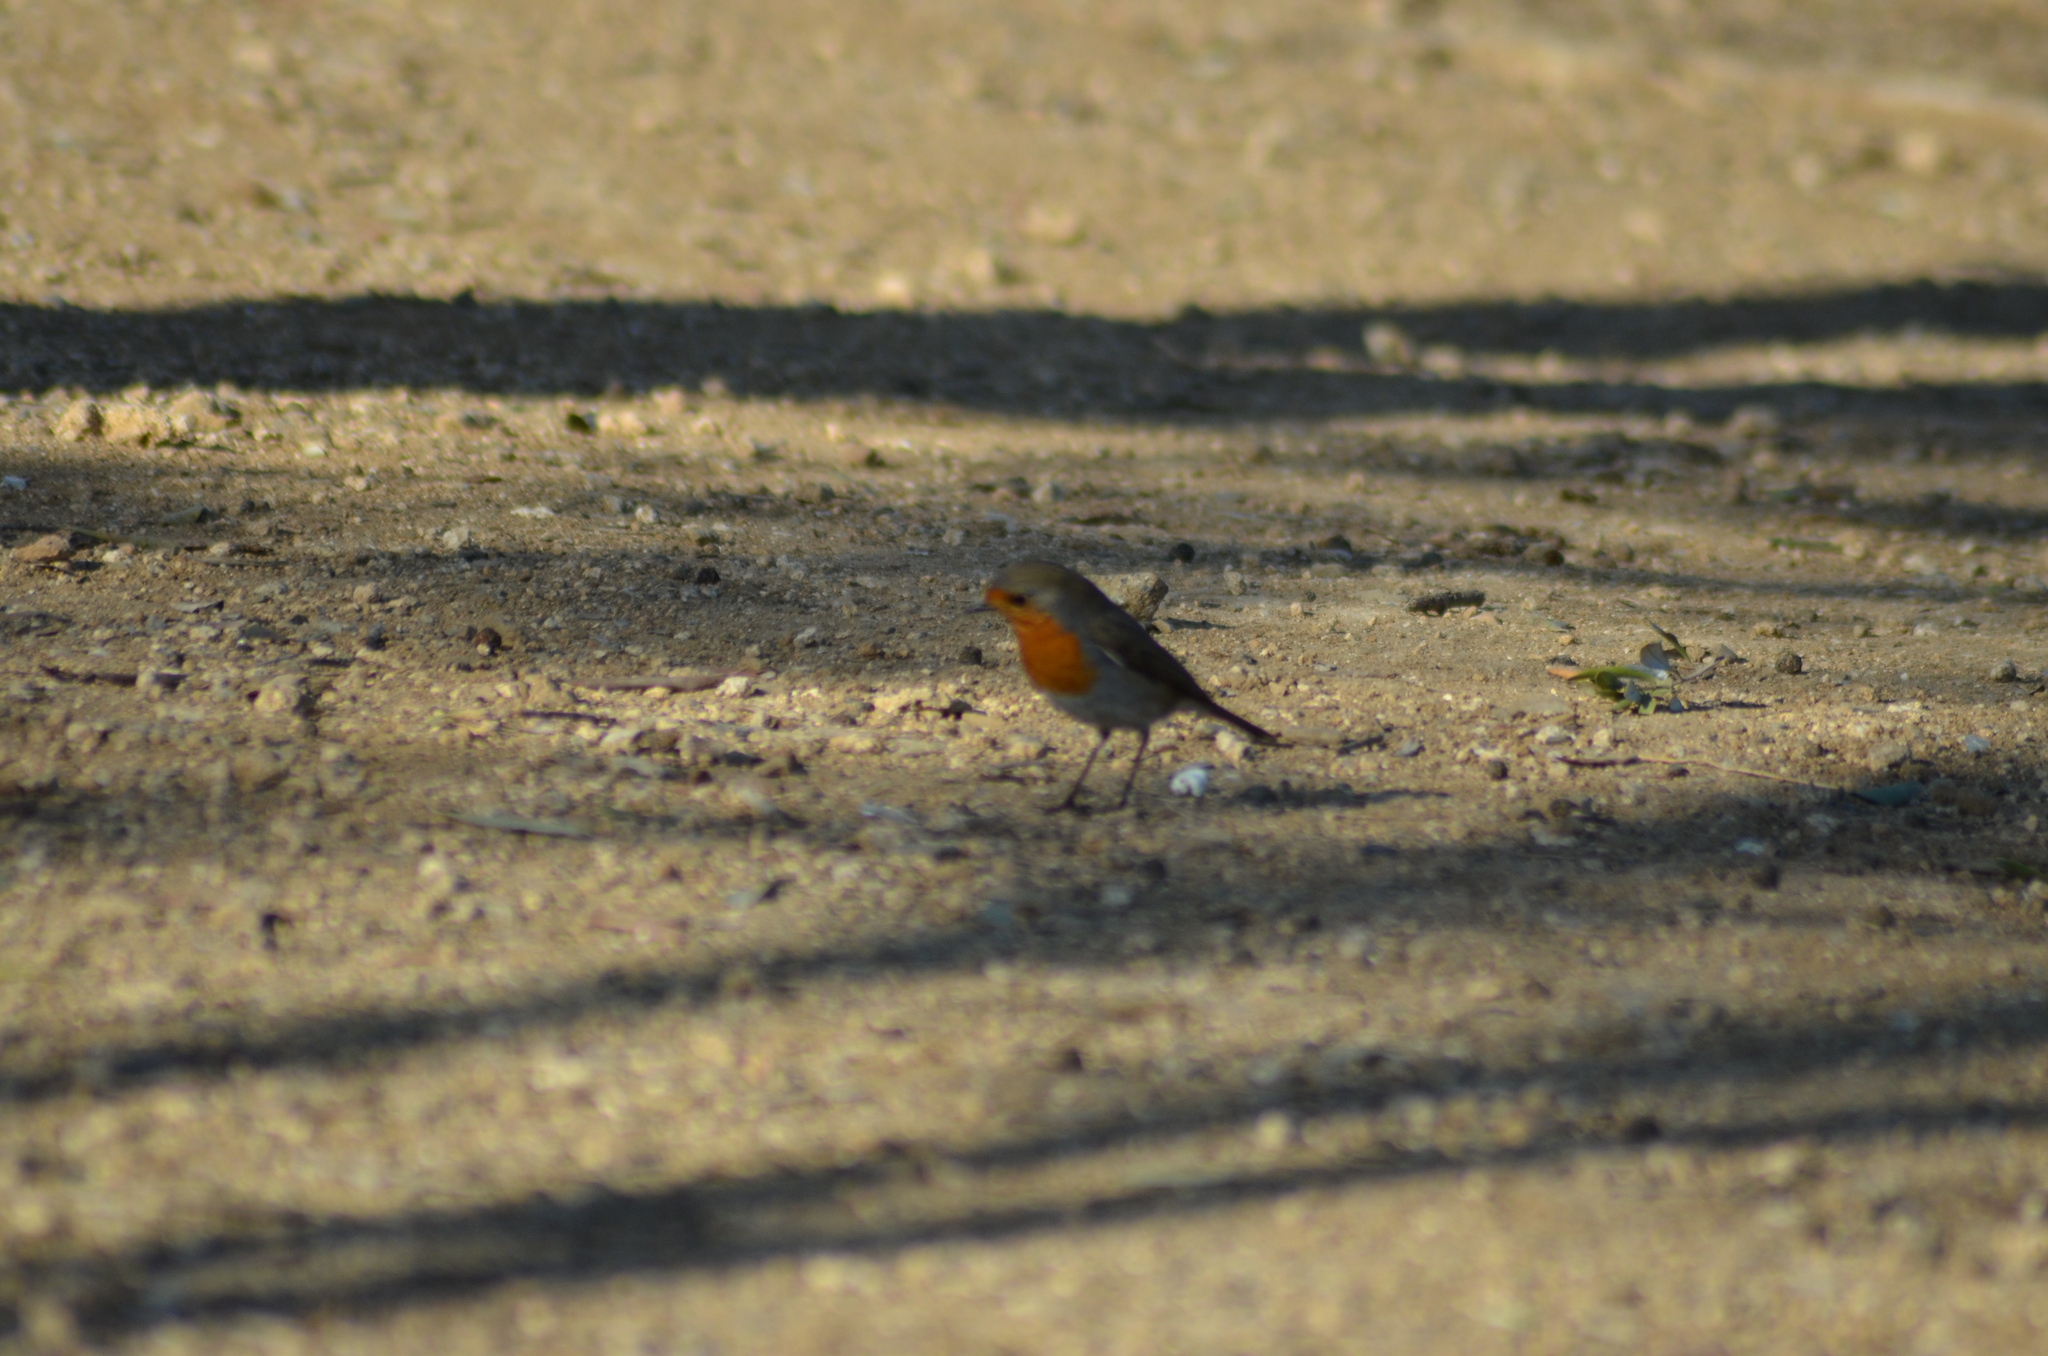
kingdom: Animalia
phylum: Chordata
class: Aves
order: Passeriformes
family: Muscicapidae
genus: Erithacus
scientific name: Erithacus rubecula
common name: European robin
